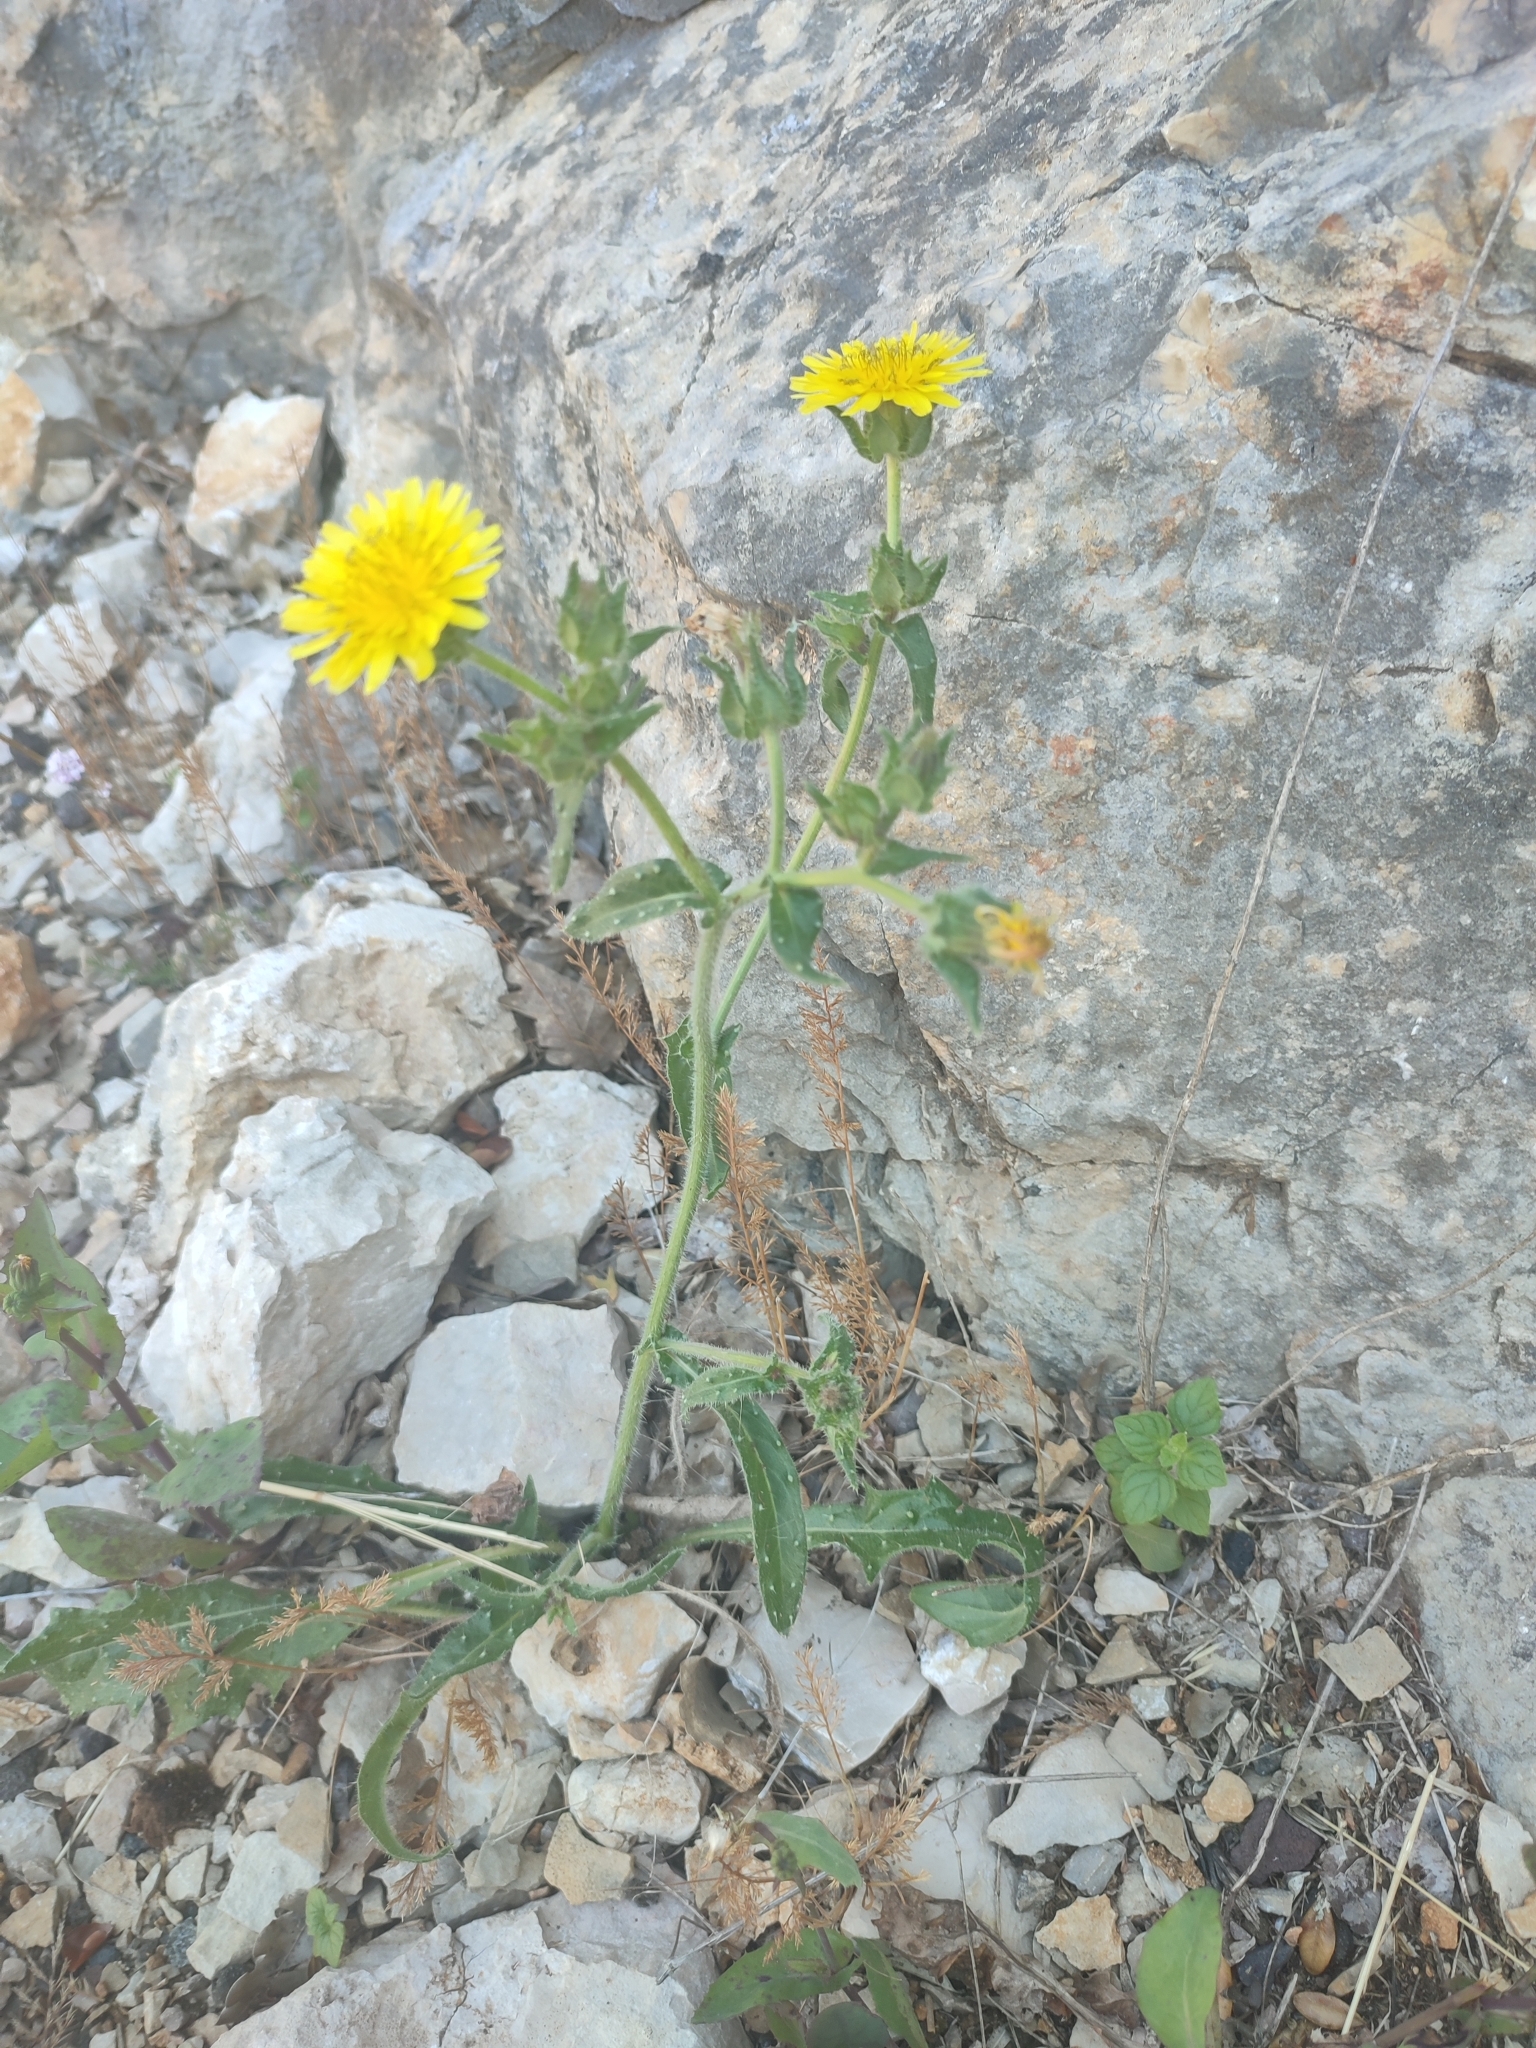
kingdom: Plantae
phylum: Tracheophyta
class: Magnoliopsida
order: Asterales
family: Asteraceae
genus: Helminthotheca
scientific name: Helminthotheca echioides
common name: Ox-tongue
